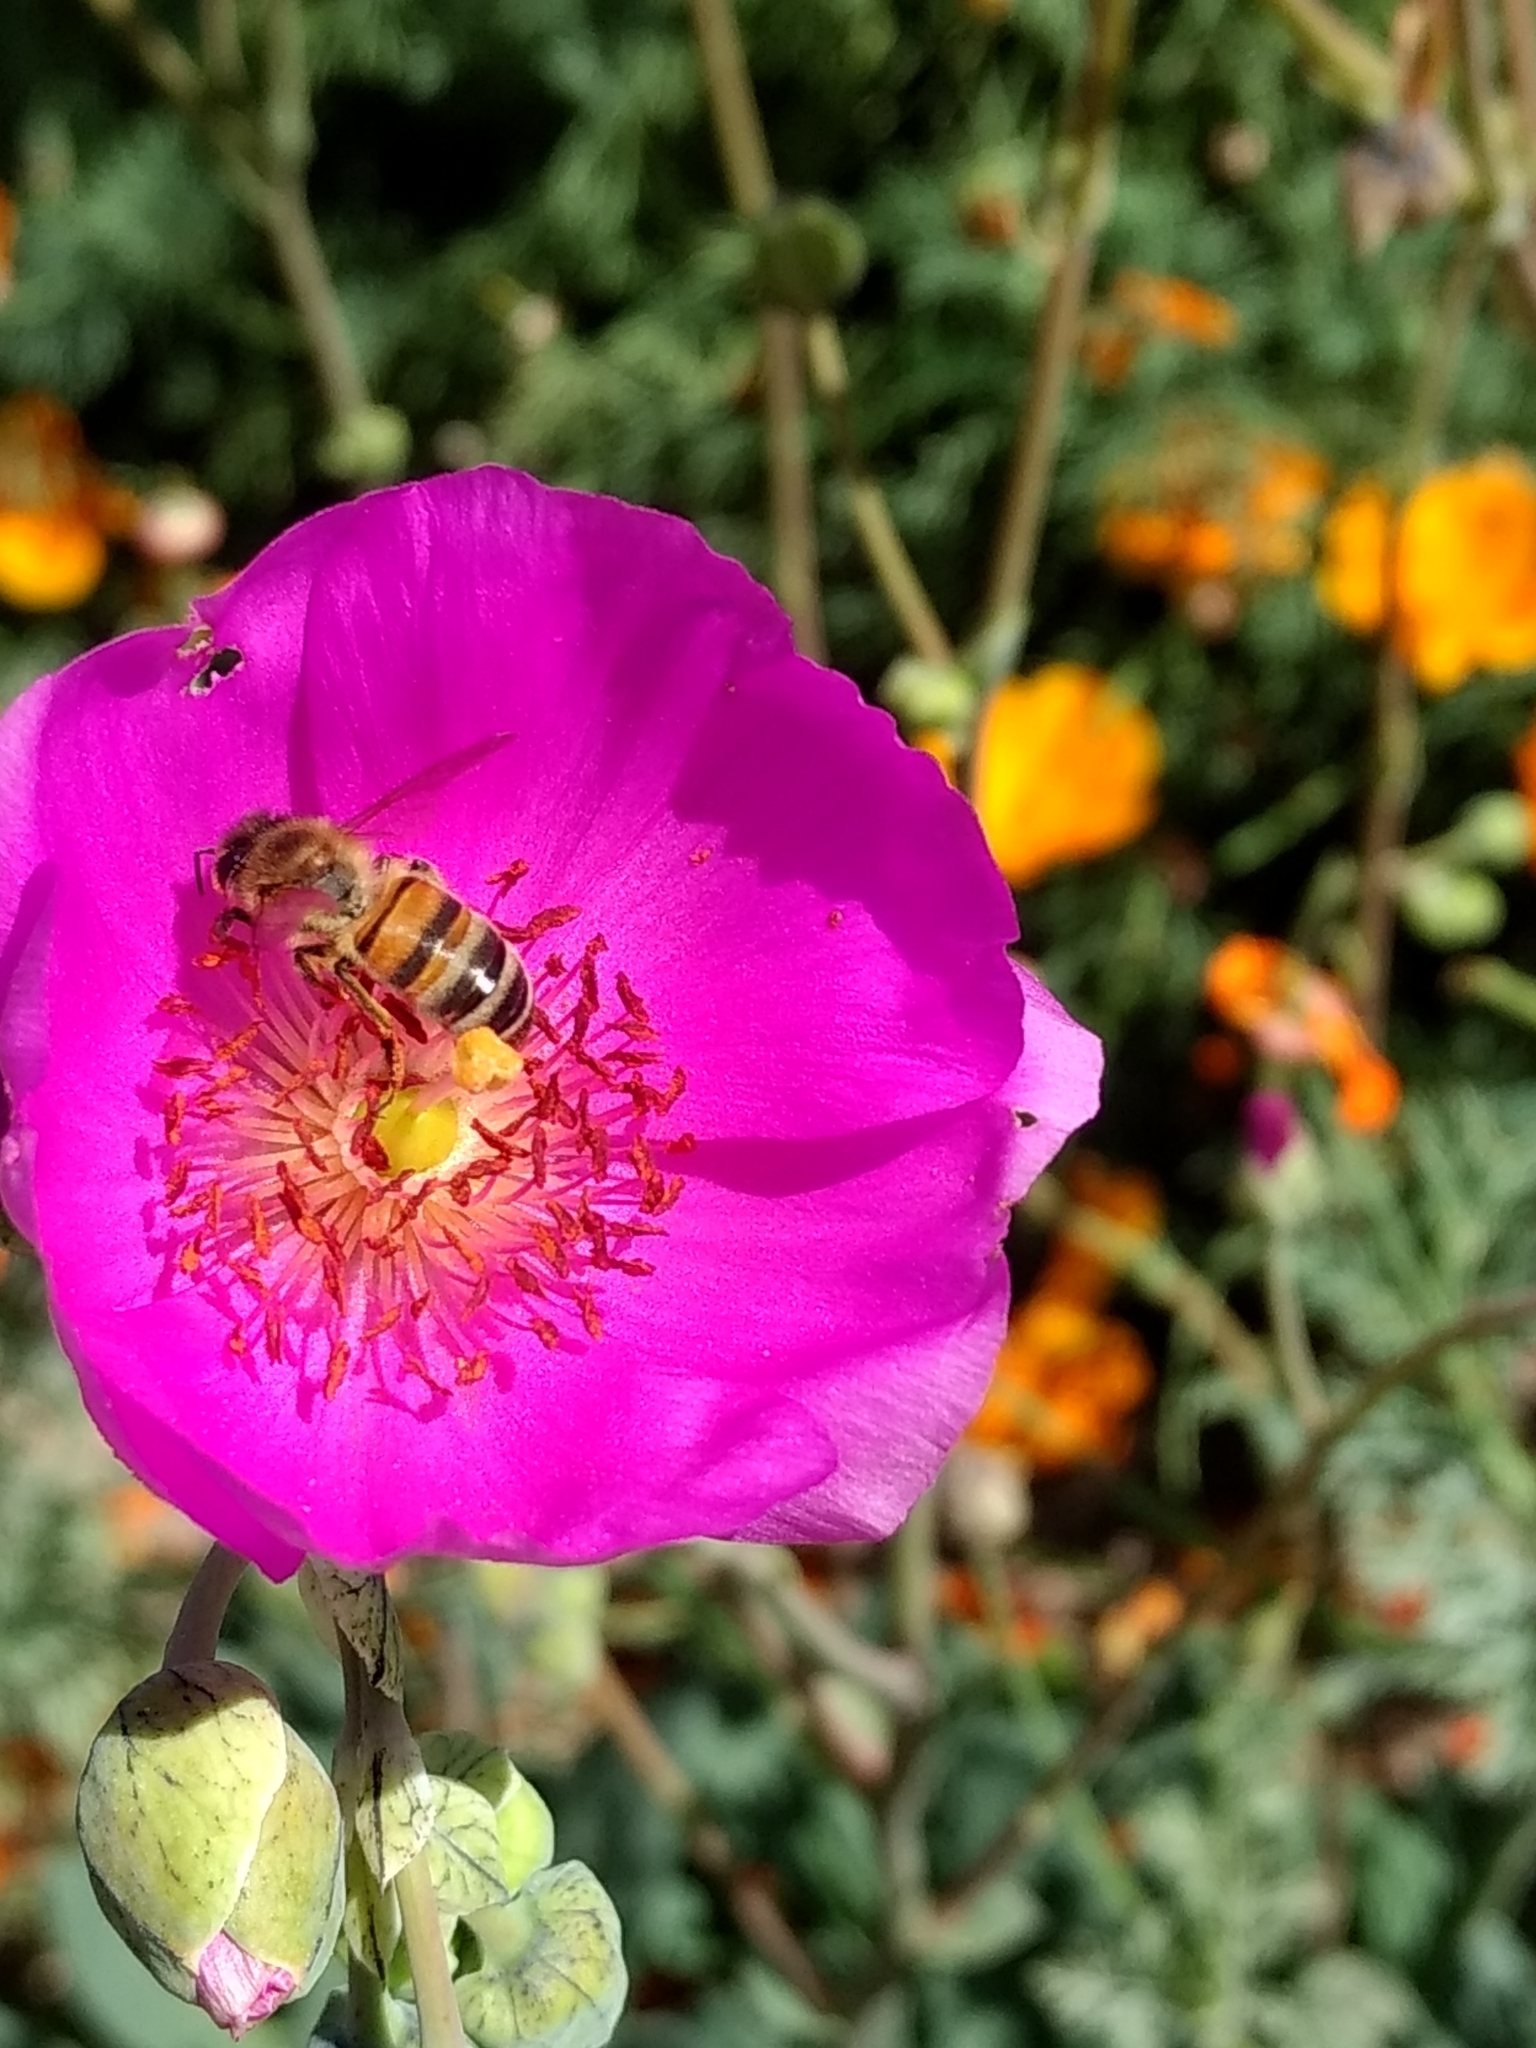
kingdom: Animalia
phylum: Arthropoda
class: Insecta
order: Hymenoptera
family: Apidae
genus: Apis
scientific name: Apis mellifera
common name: Honey bee
